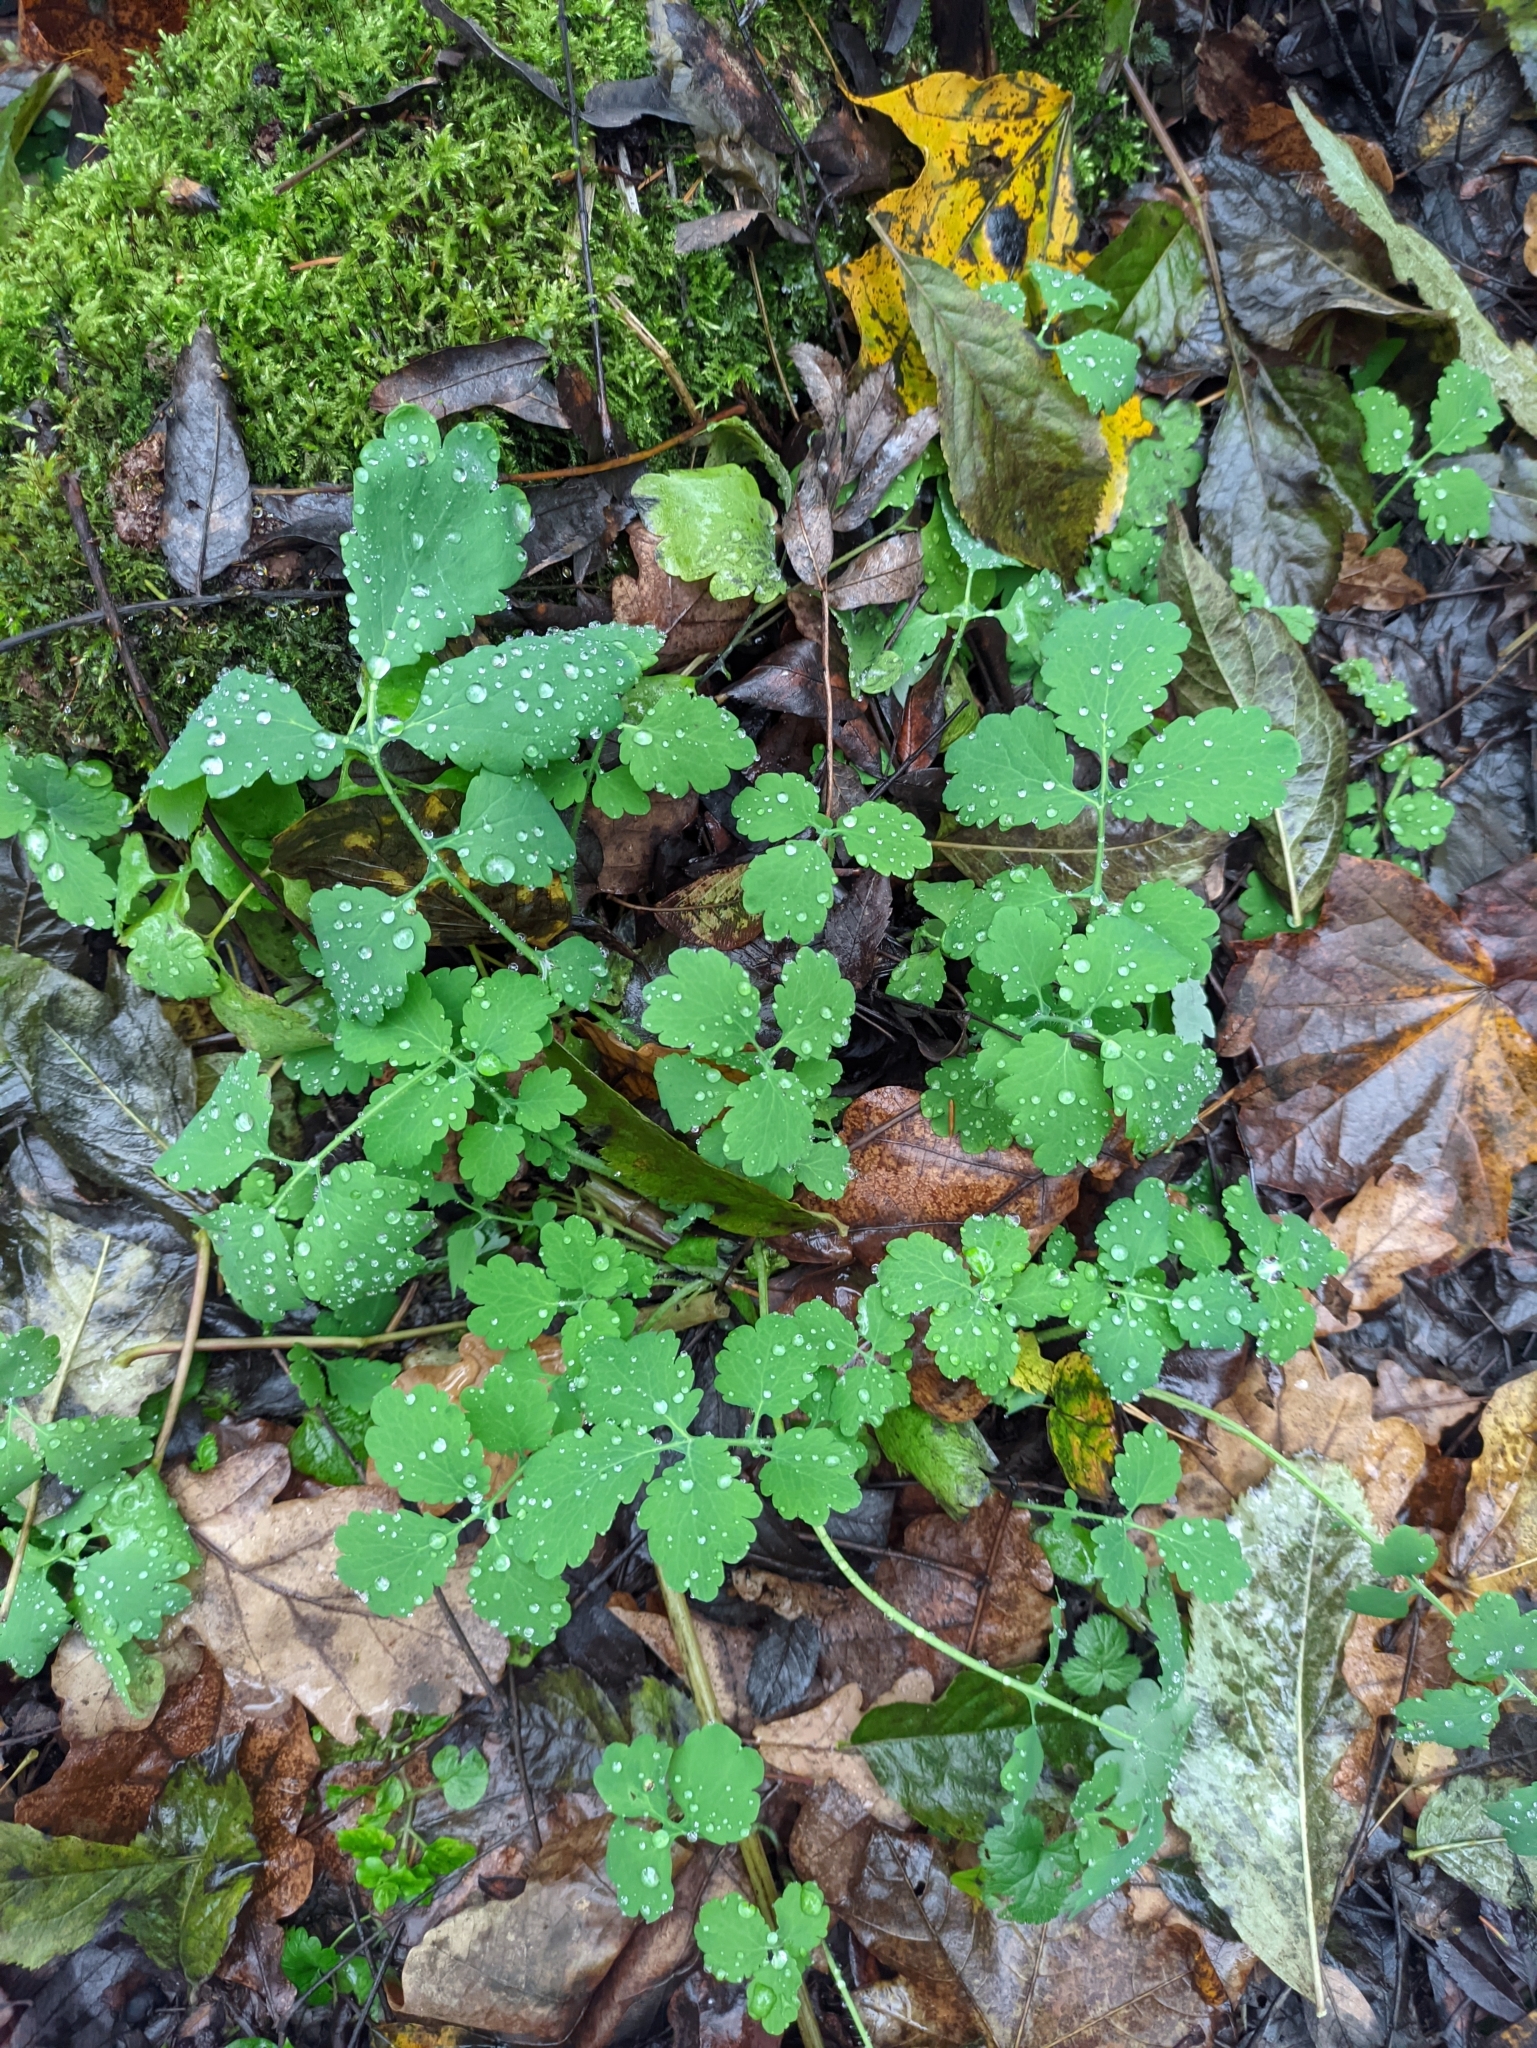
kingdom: Plantae
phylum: Tracheophyta
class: Magnoliopsida
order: Ranunculales
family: Papaveraceae
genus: Chelidonium
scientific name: Chelidonium majus
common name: Greater celandine
